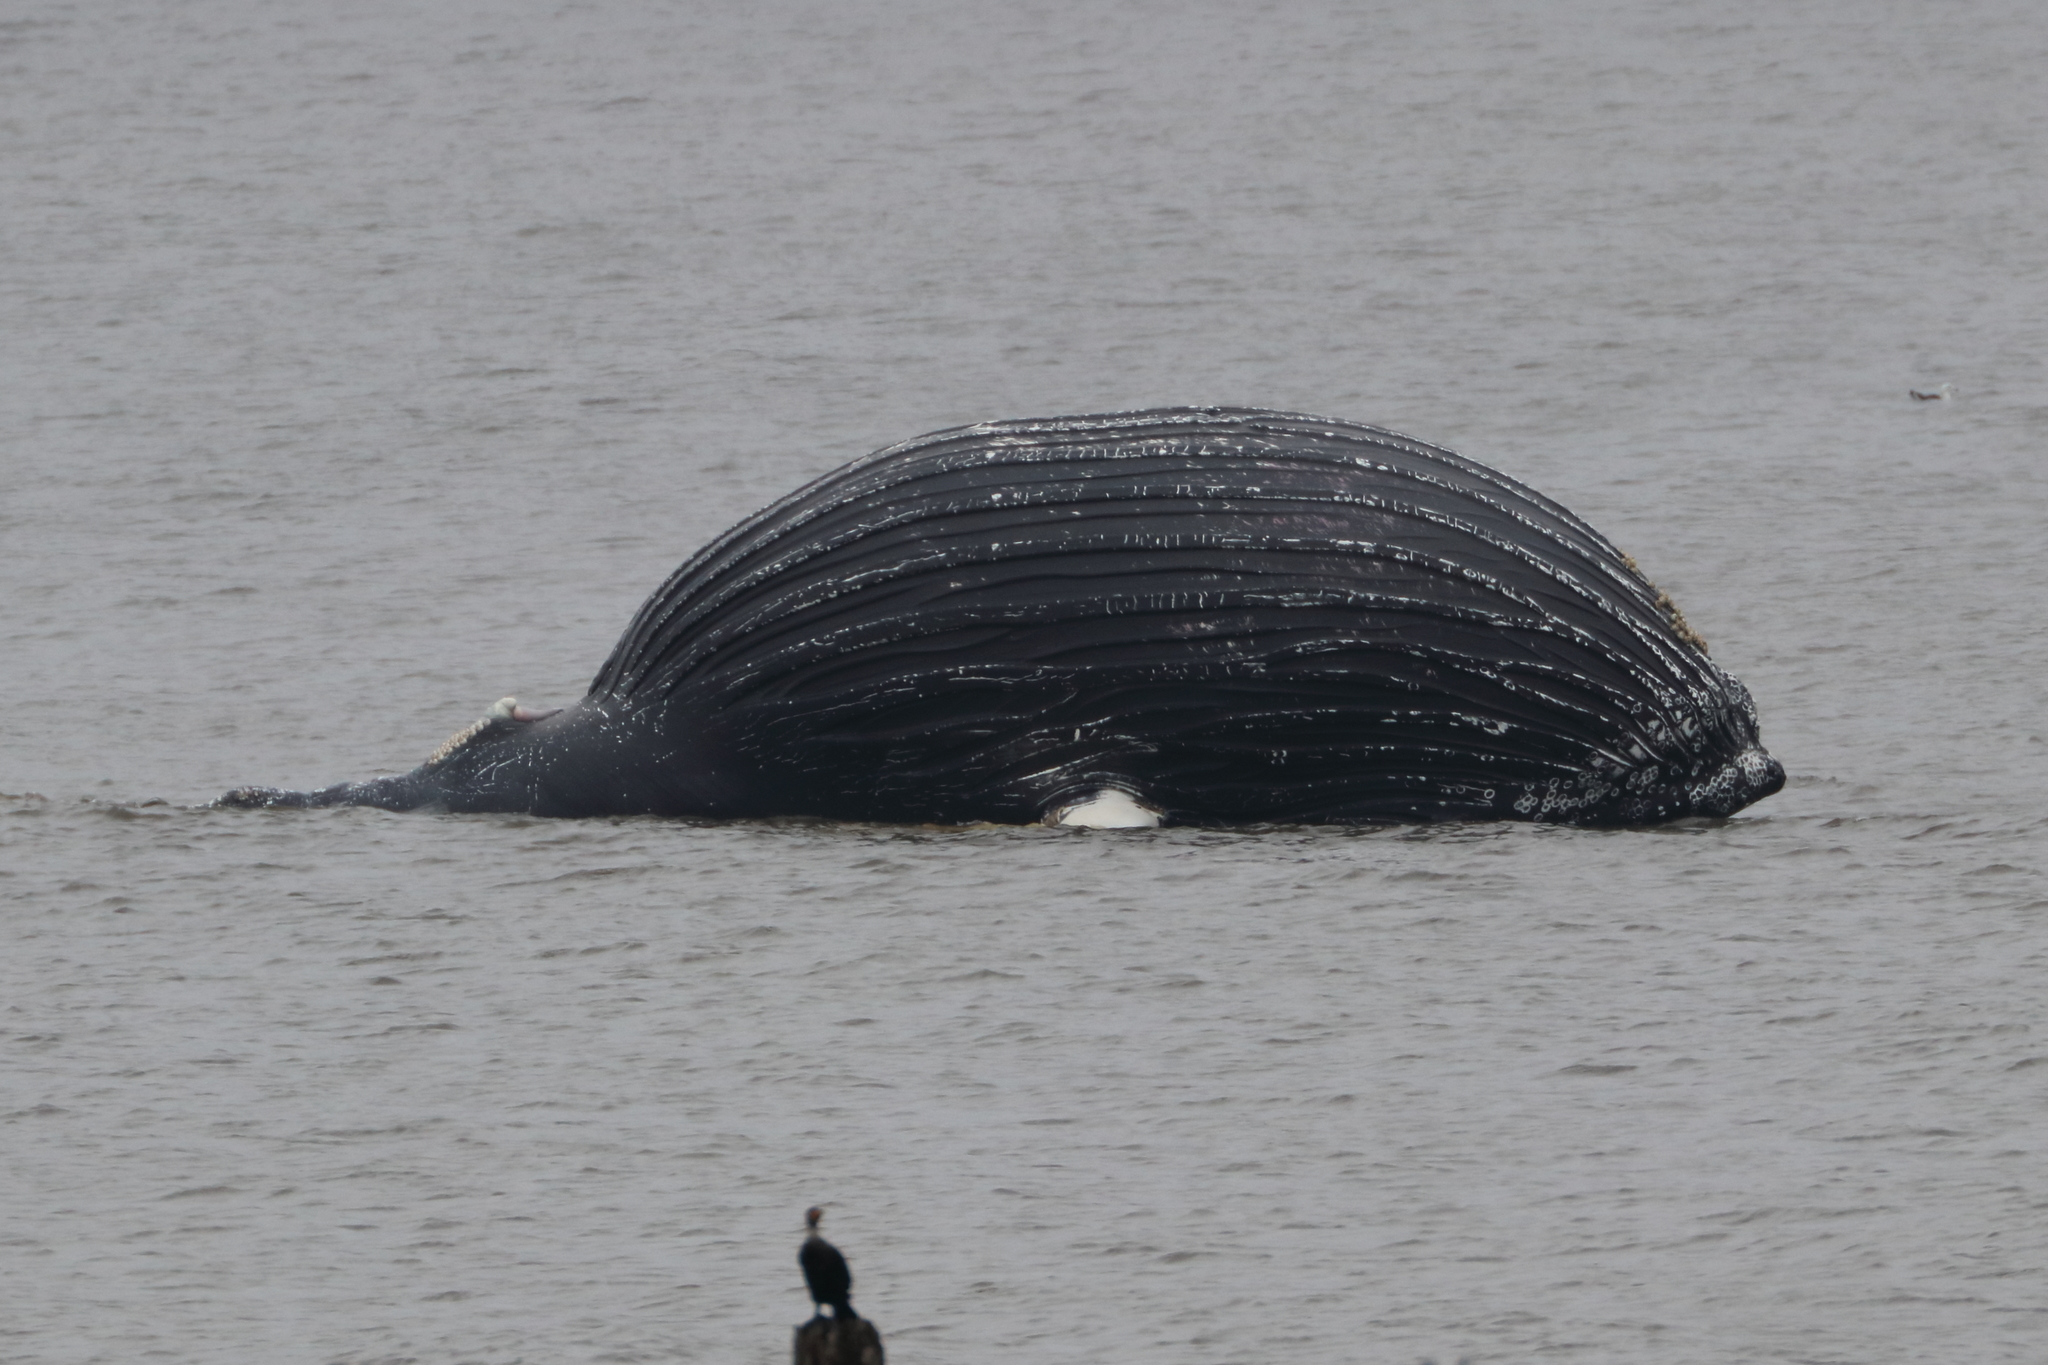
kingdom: Animalia
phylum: Chordata
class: Mammalia
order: Cetacea
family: Balaenopteridae
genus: Megaptera
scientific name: Megaptera novaeangliae
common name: Humpback whale
